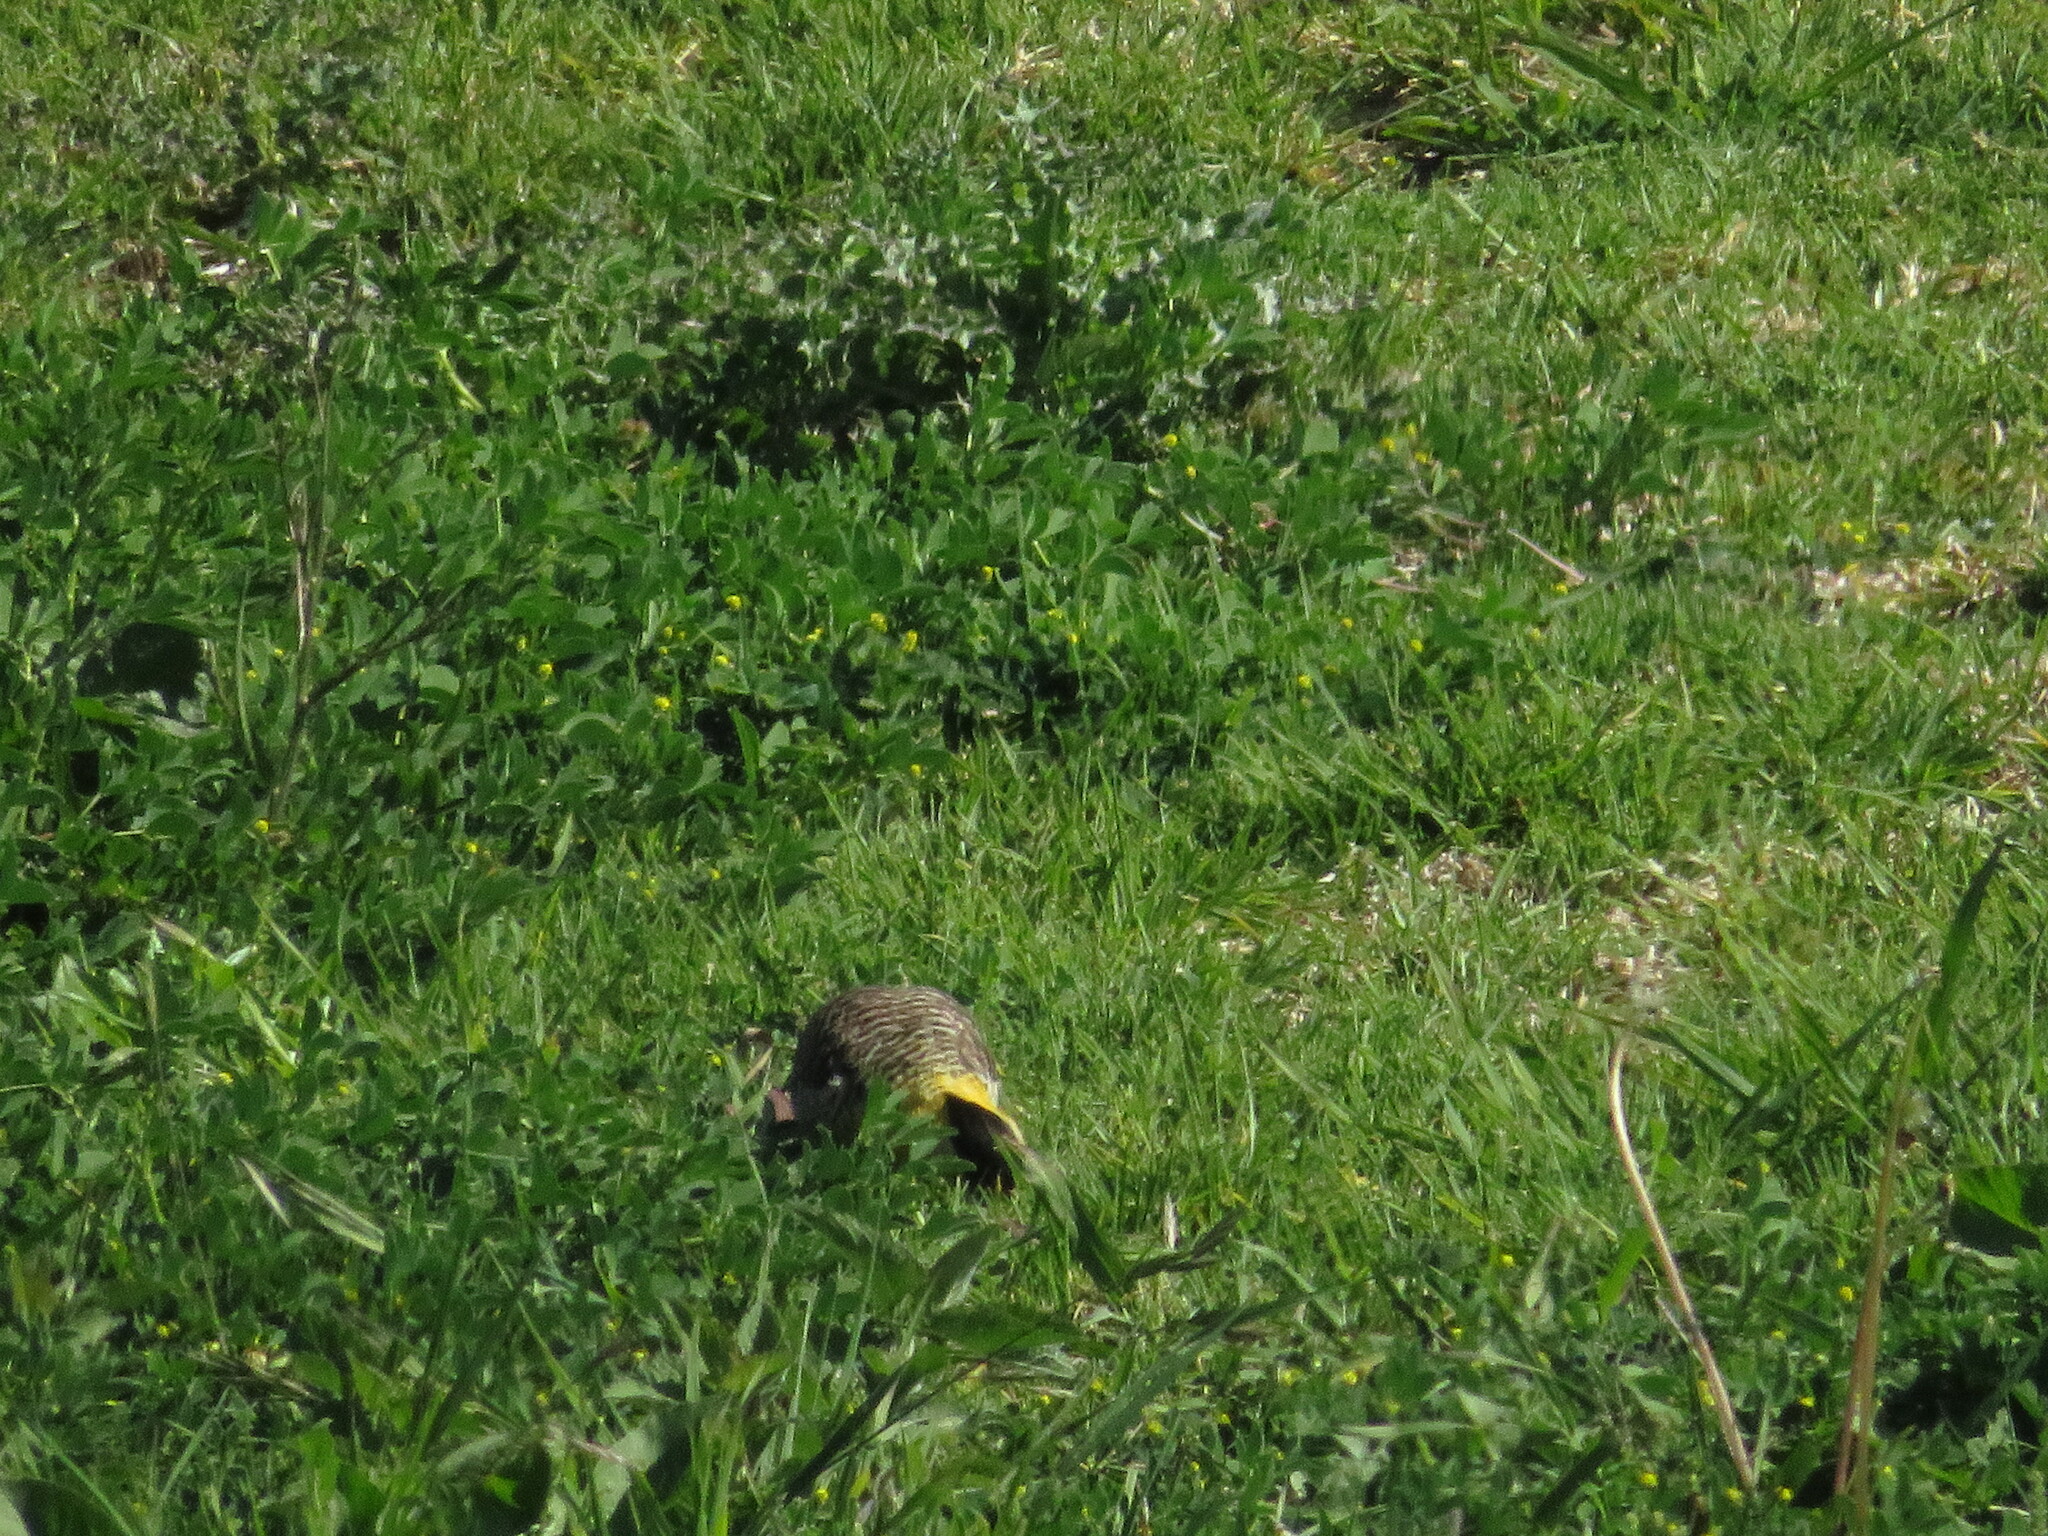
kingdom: Animalia
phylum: Chordata
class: Aves
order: Piciformes
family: Picidae
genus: Colaptes
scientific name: Colaptes campestris
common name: Campo flicker
